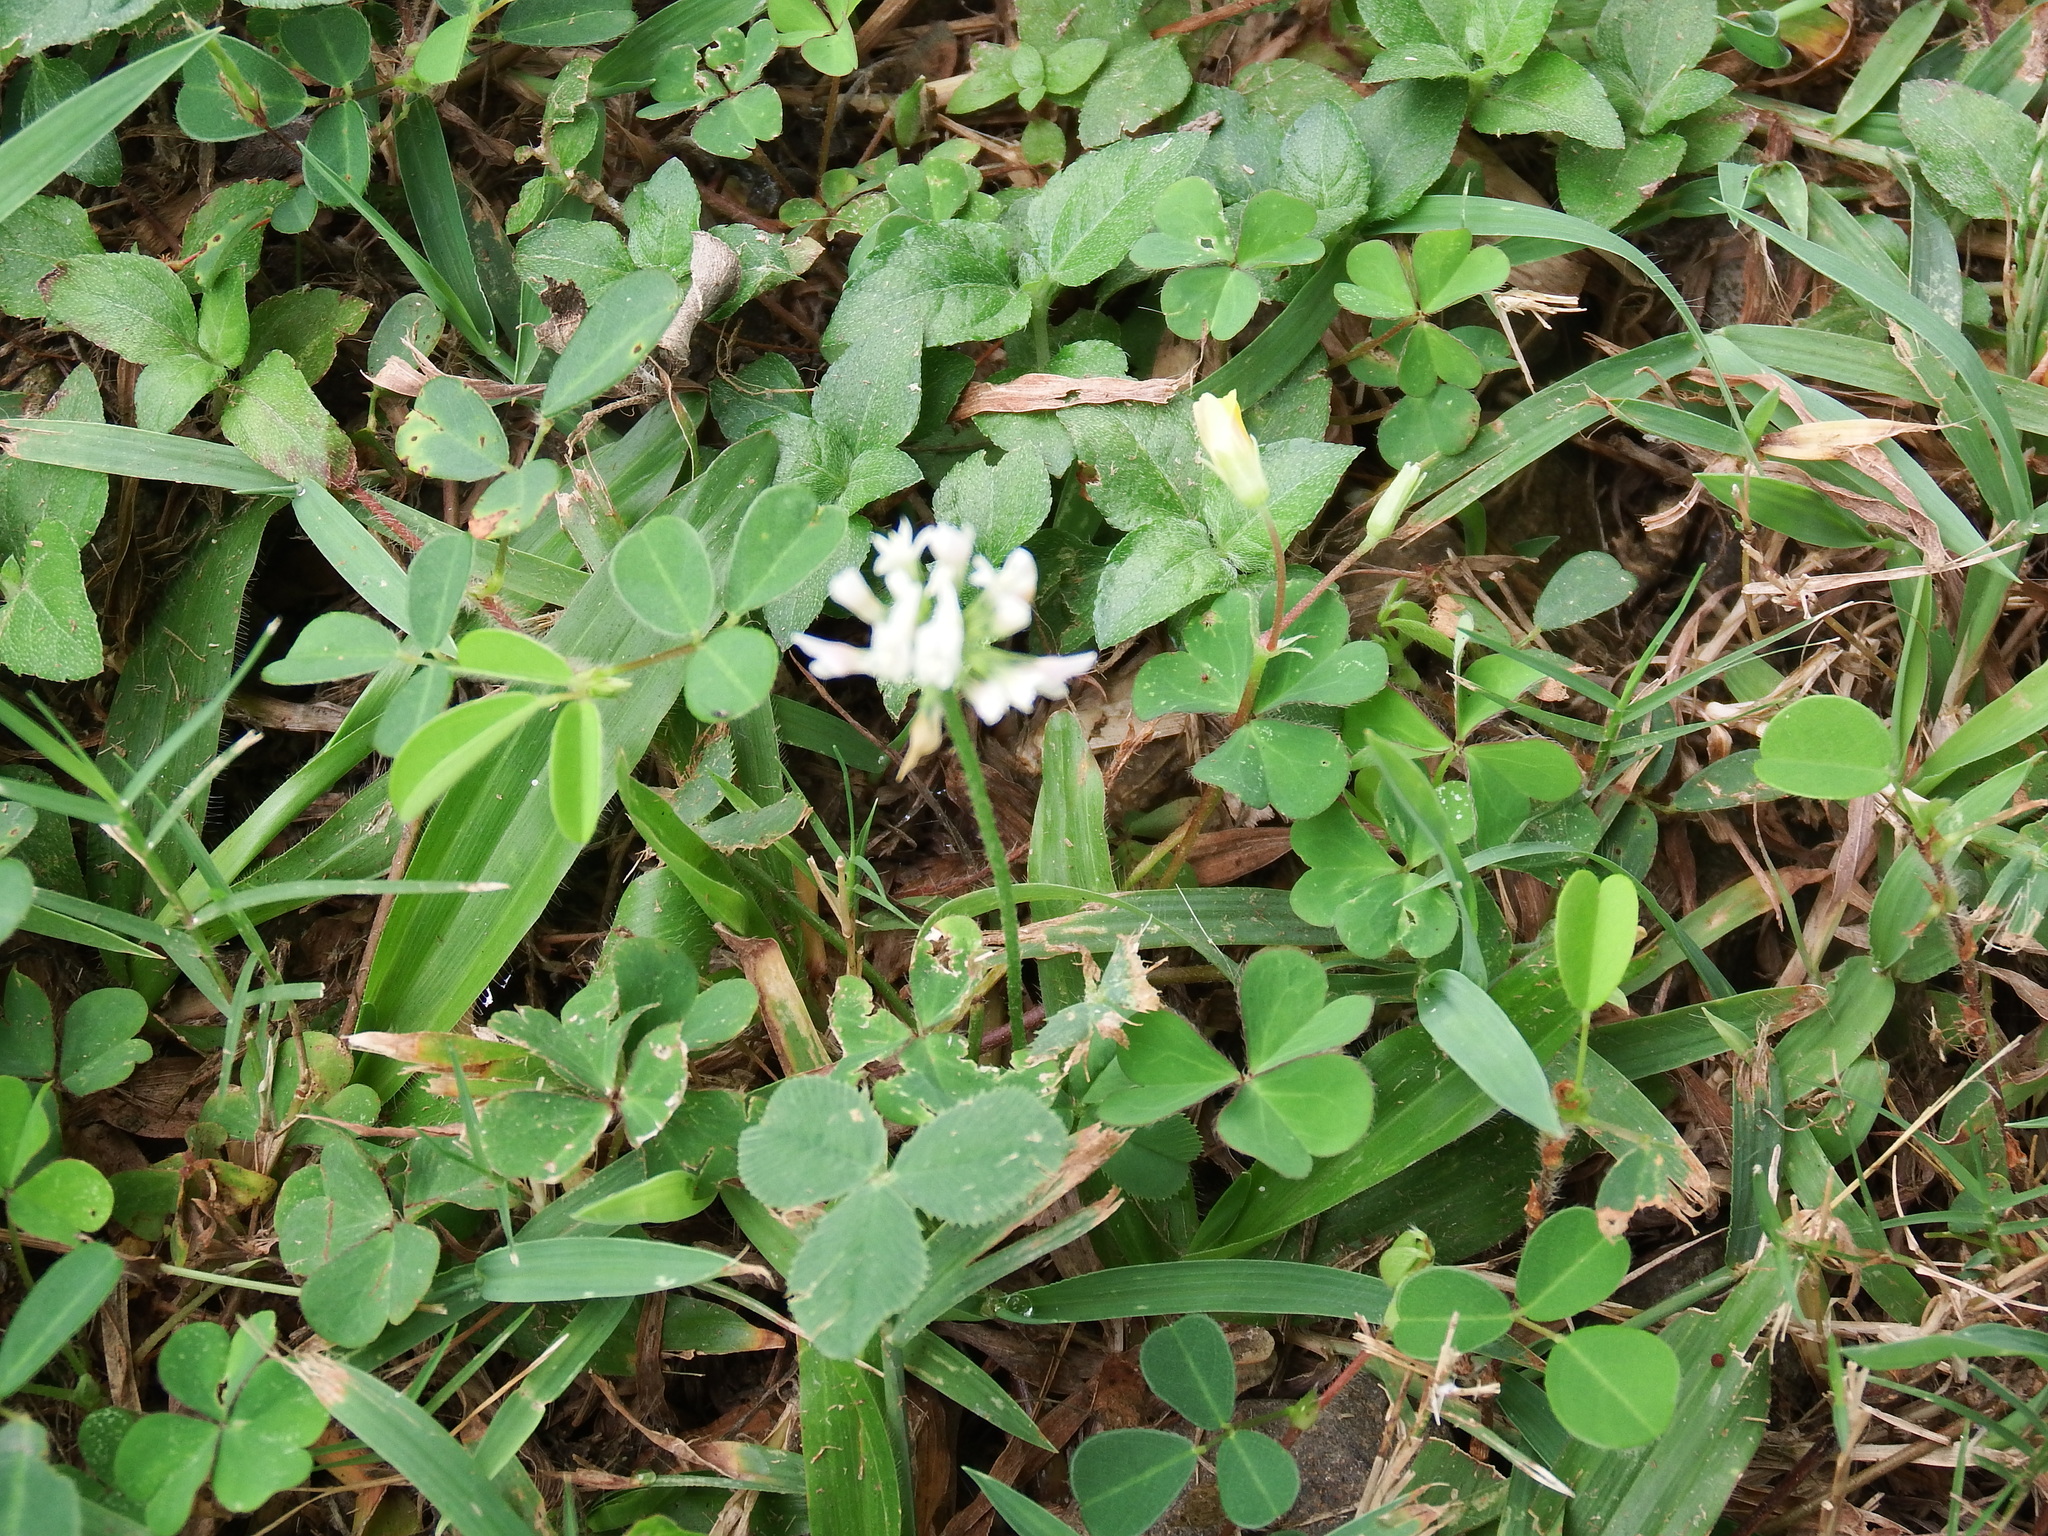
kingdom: Plantae
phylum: Tracheophyta
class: Magnoliopsida
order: Fabales
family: Fabaceae
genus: Trifolium
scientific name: Trifolium repens
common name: White clover
